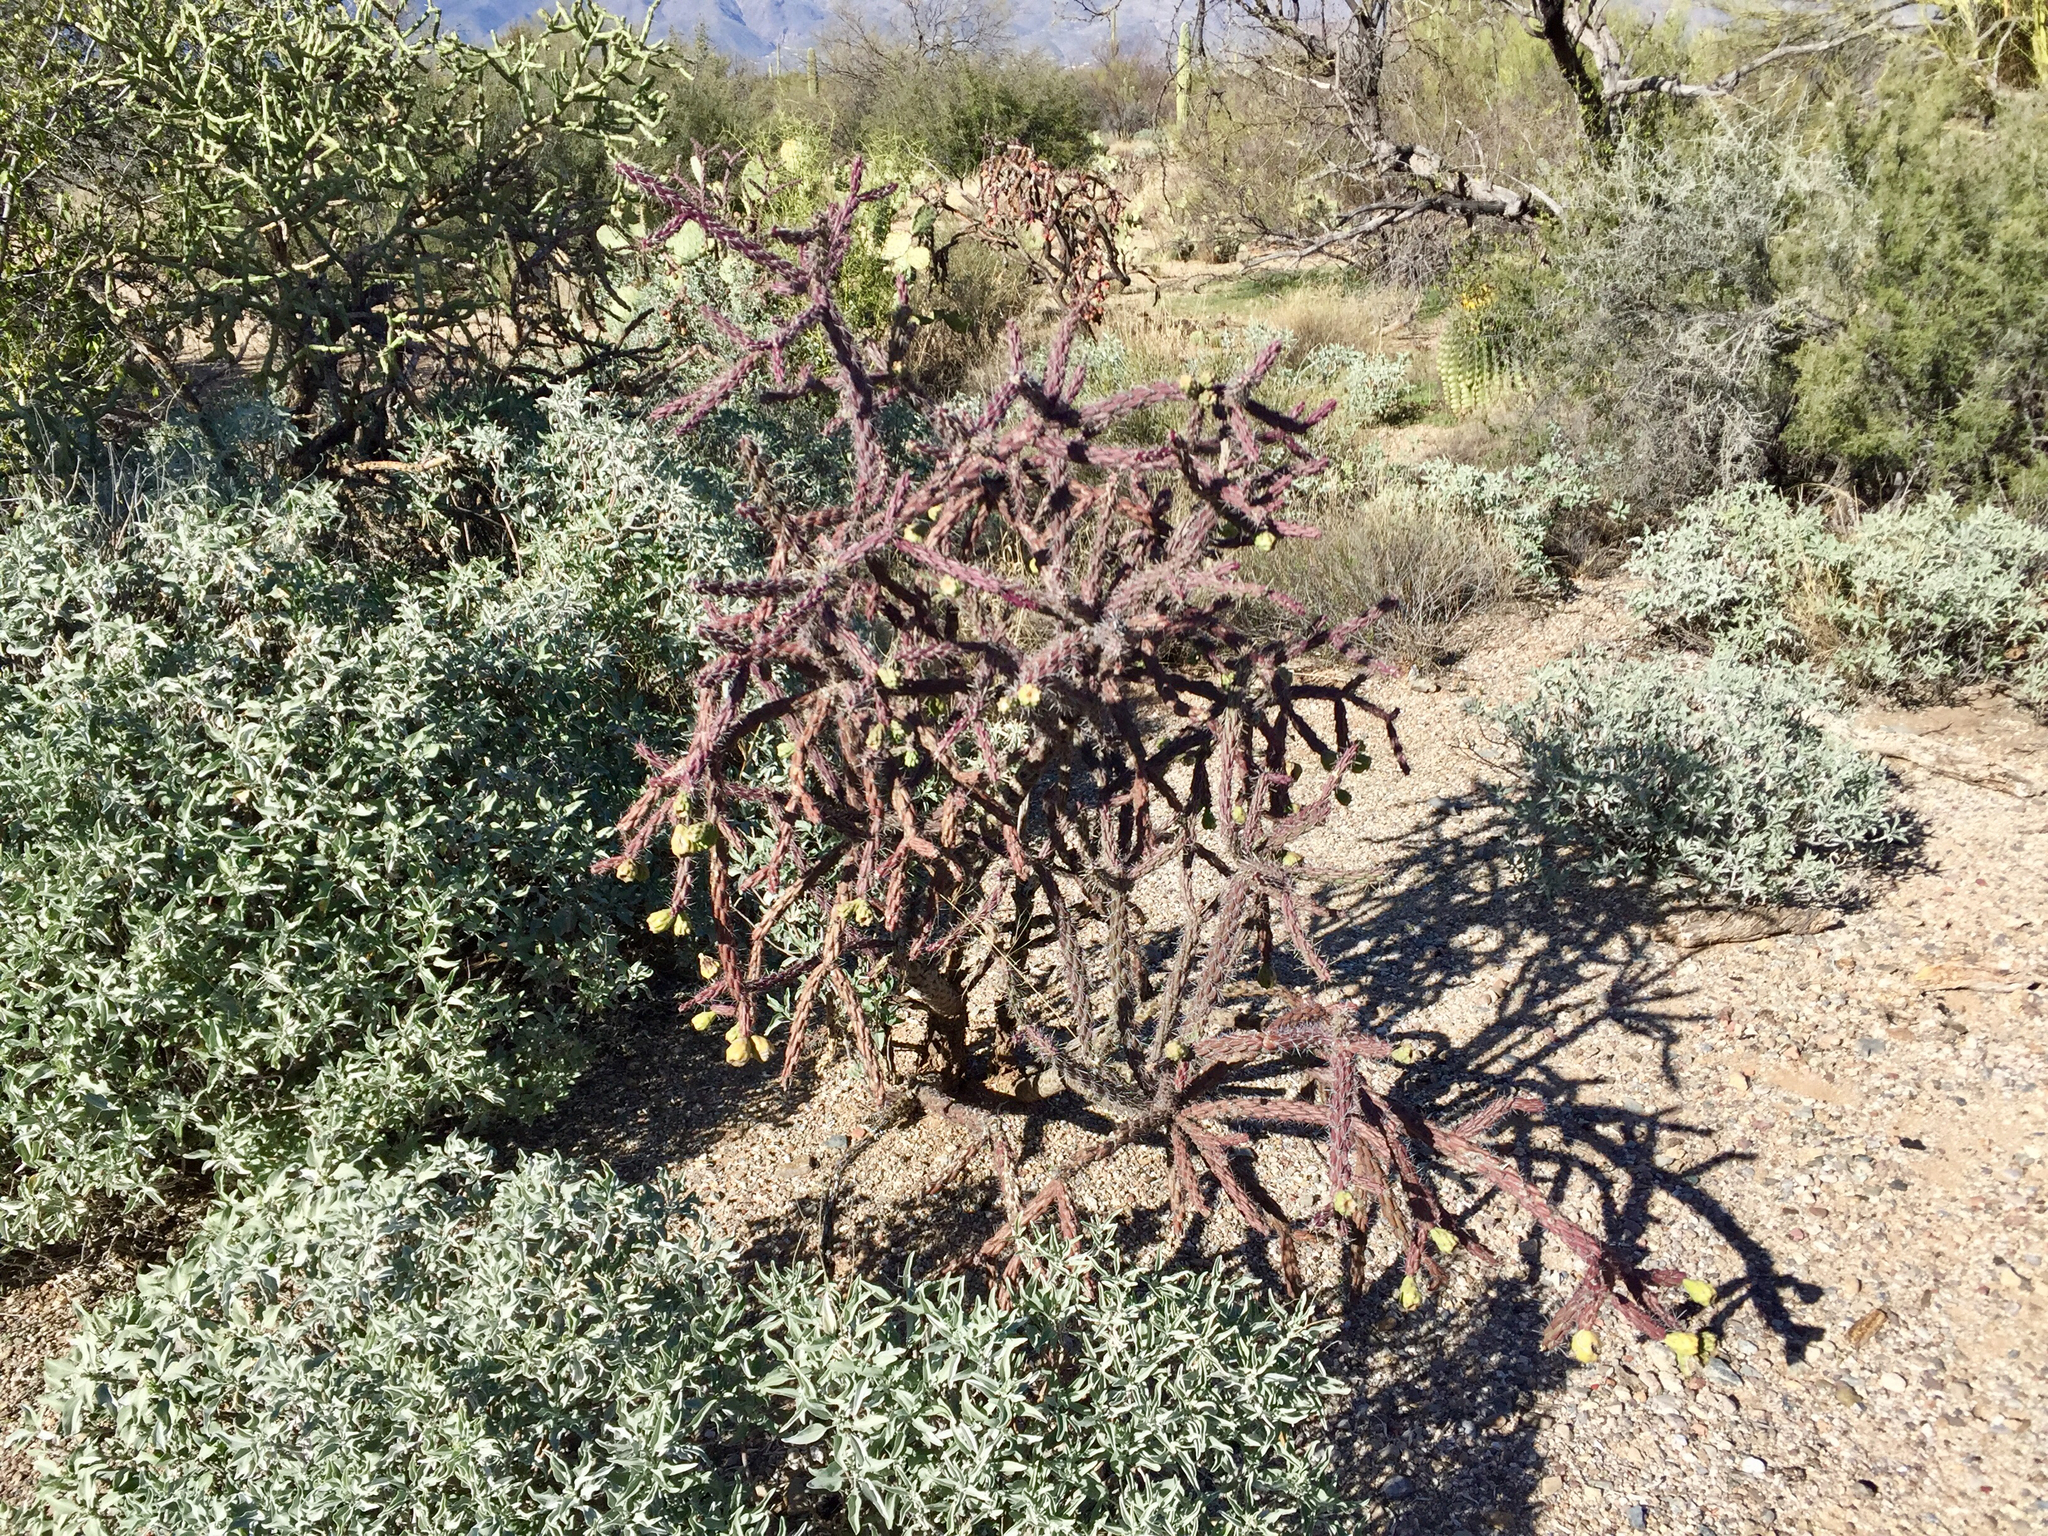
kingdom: Plantae
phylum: Tracheophyta
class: Magnoliopsida
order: Caryophyllales
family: Cactaceae
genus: Cylindropuntia
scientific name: Cylindropuntia thurberi
